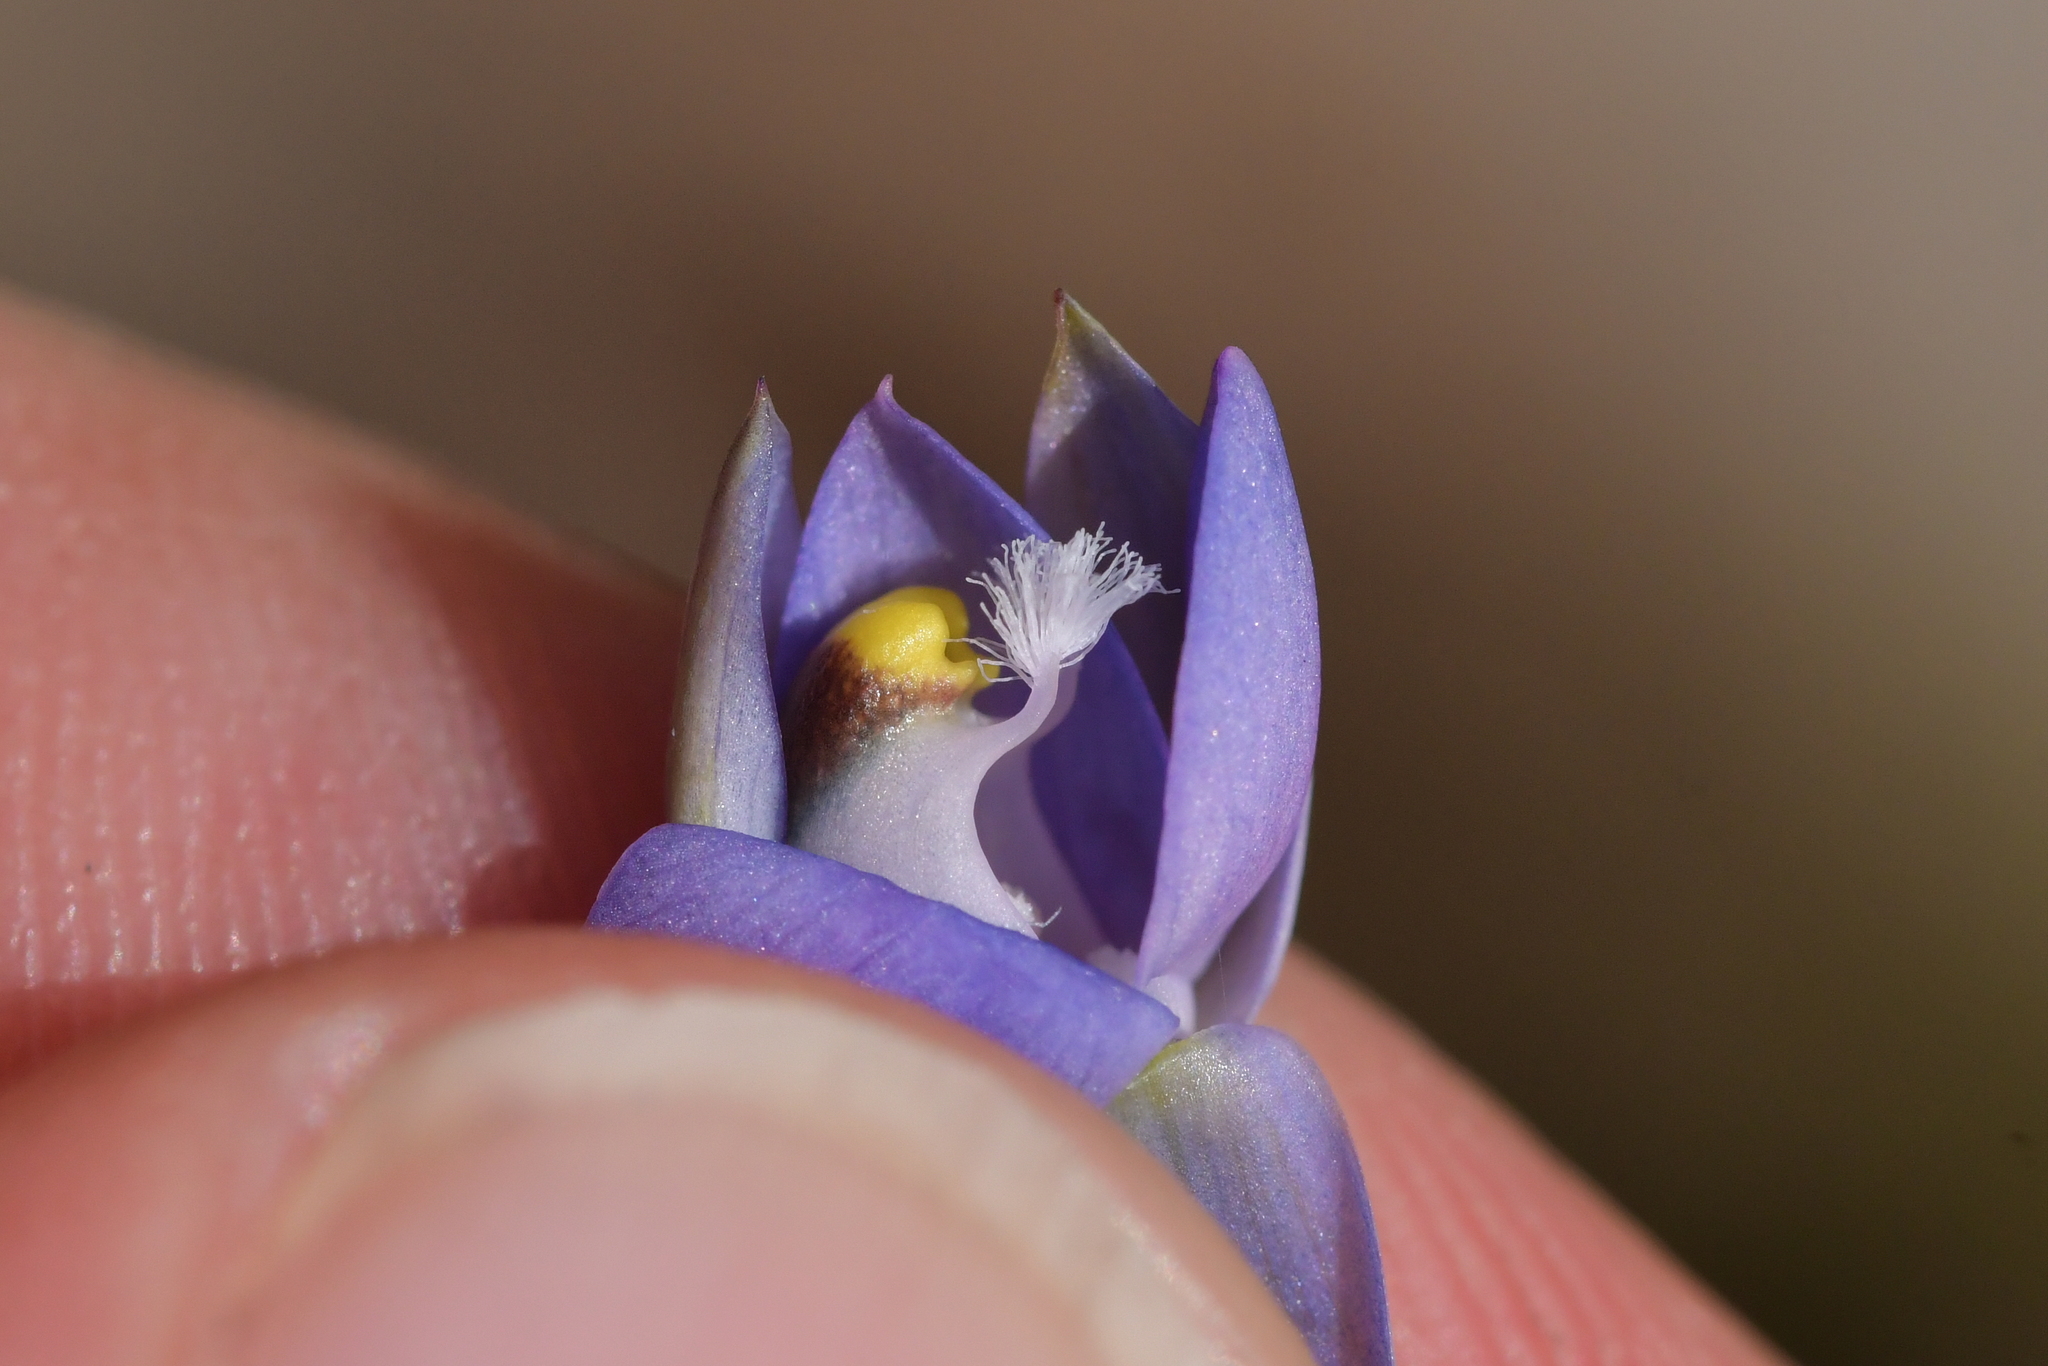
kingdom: Plantae
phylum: Tracheophyta
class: Liliopsida
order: Asparagales
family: Orchidaceae
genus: Thelymitra
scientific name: Thelymitra pauciflora
